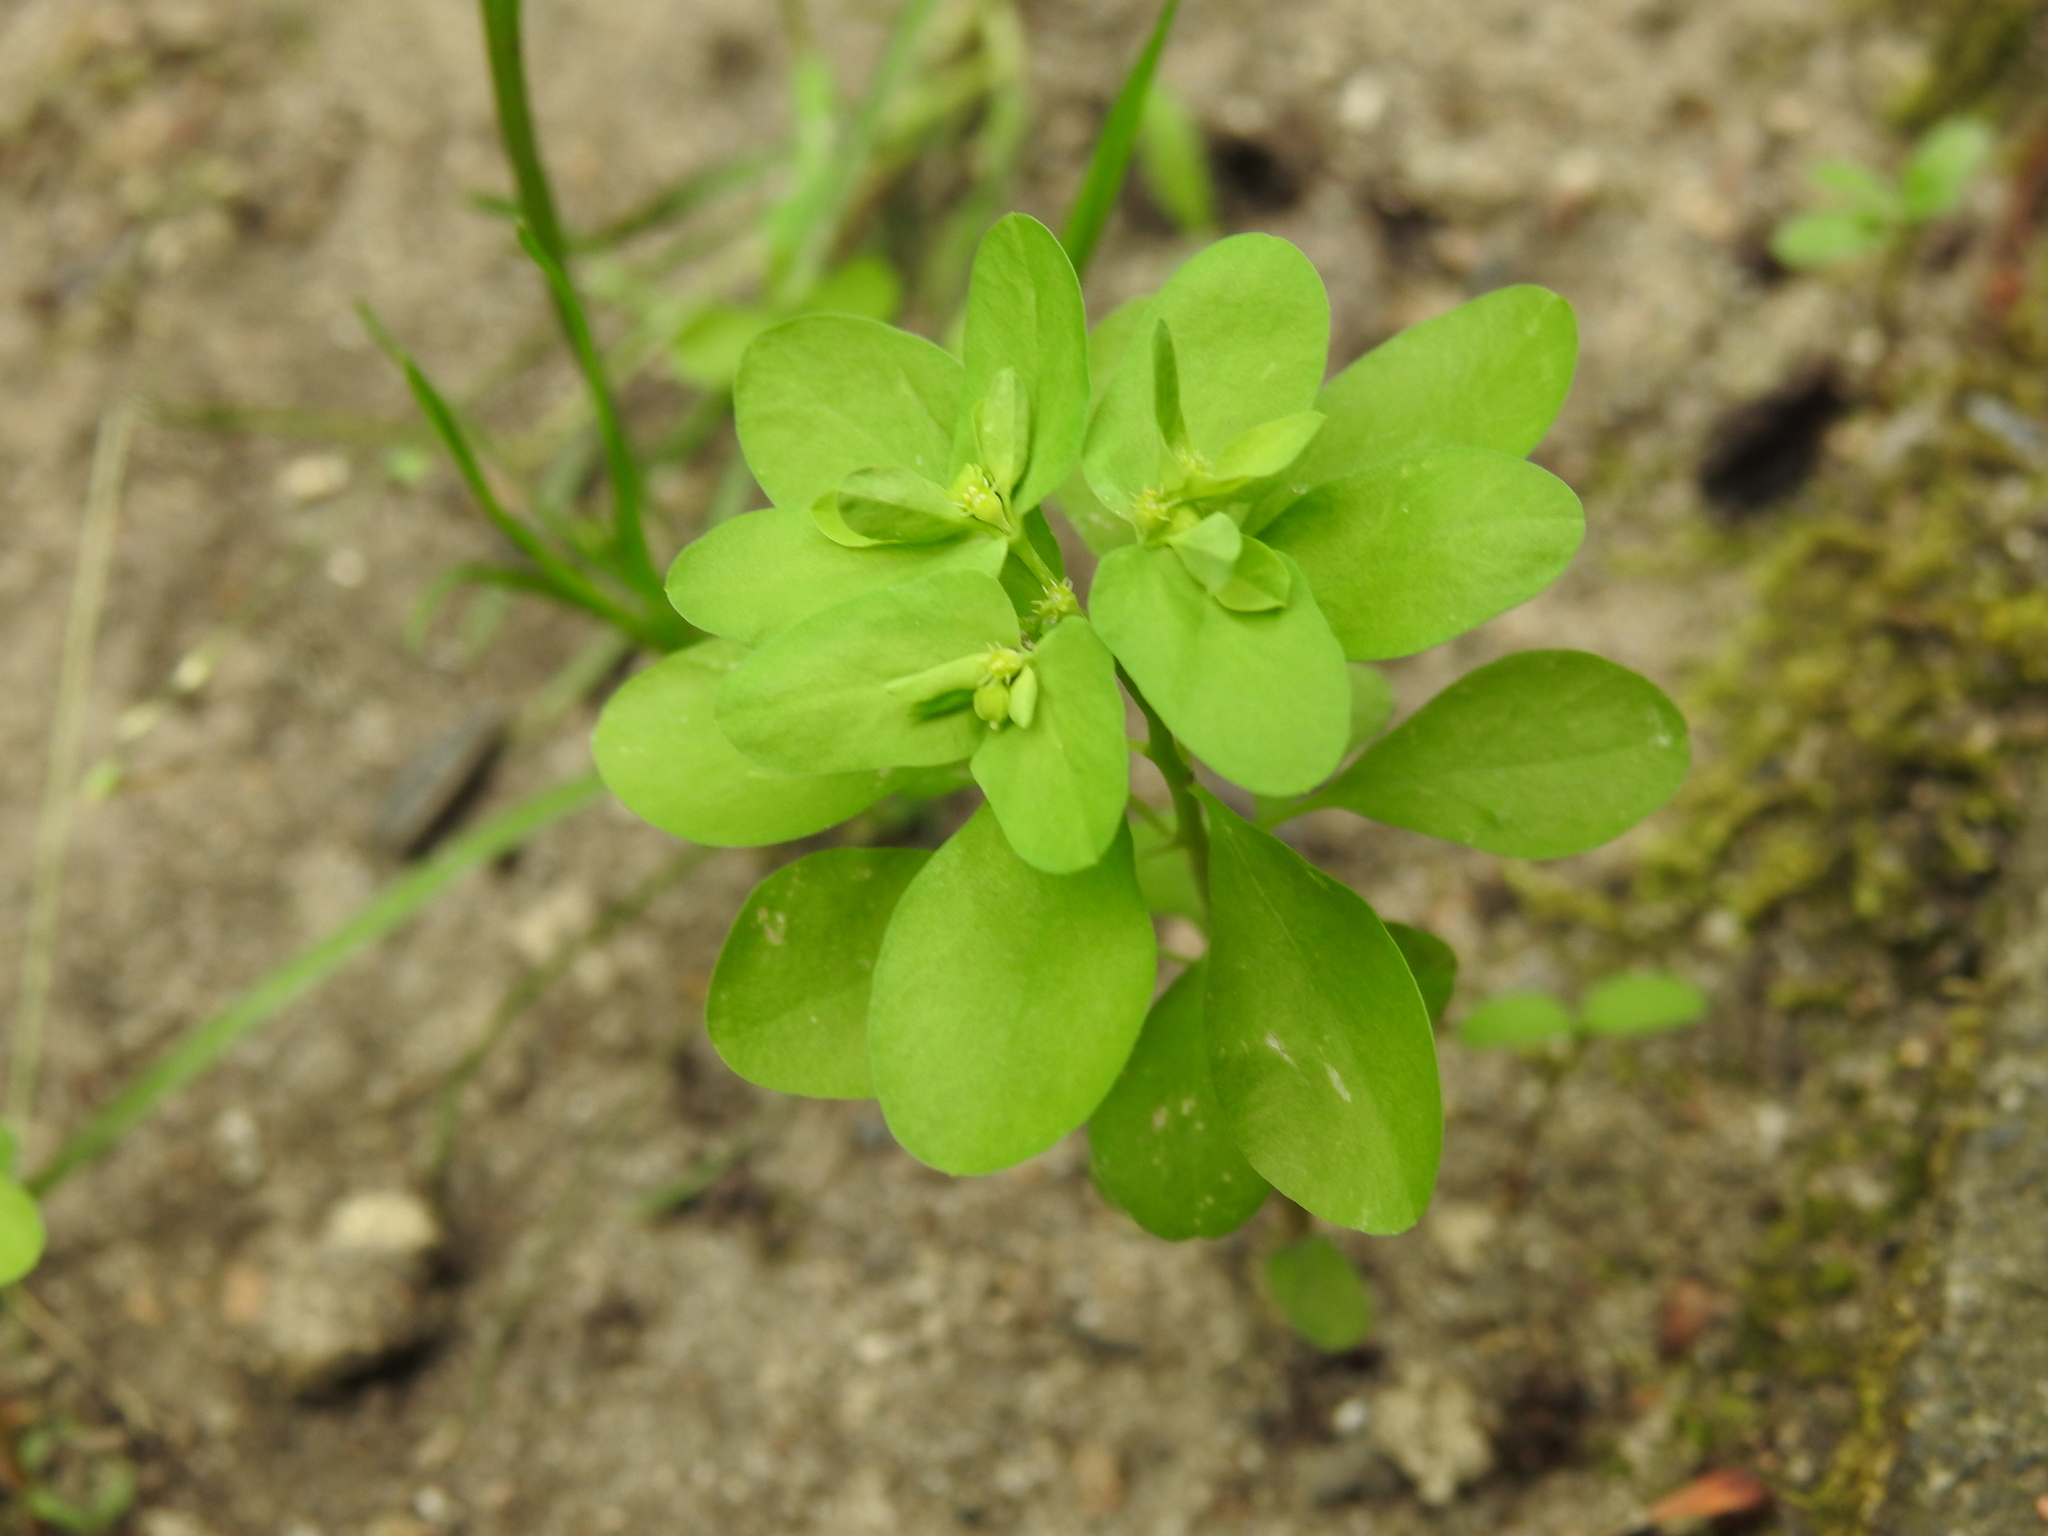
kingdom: Plantae
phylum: Tracheophyta
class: Magnoliopsida
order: Malpighiales
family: Euphorbiaceae
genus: Euphorbia
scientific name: Euphorbia peplus
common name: Petty spurge
